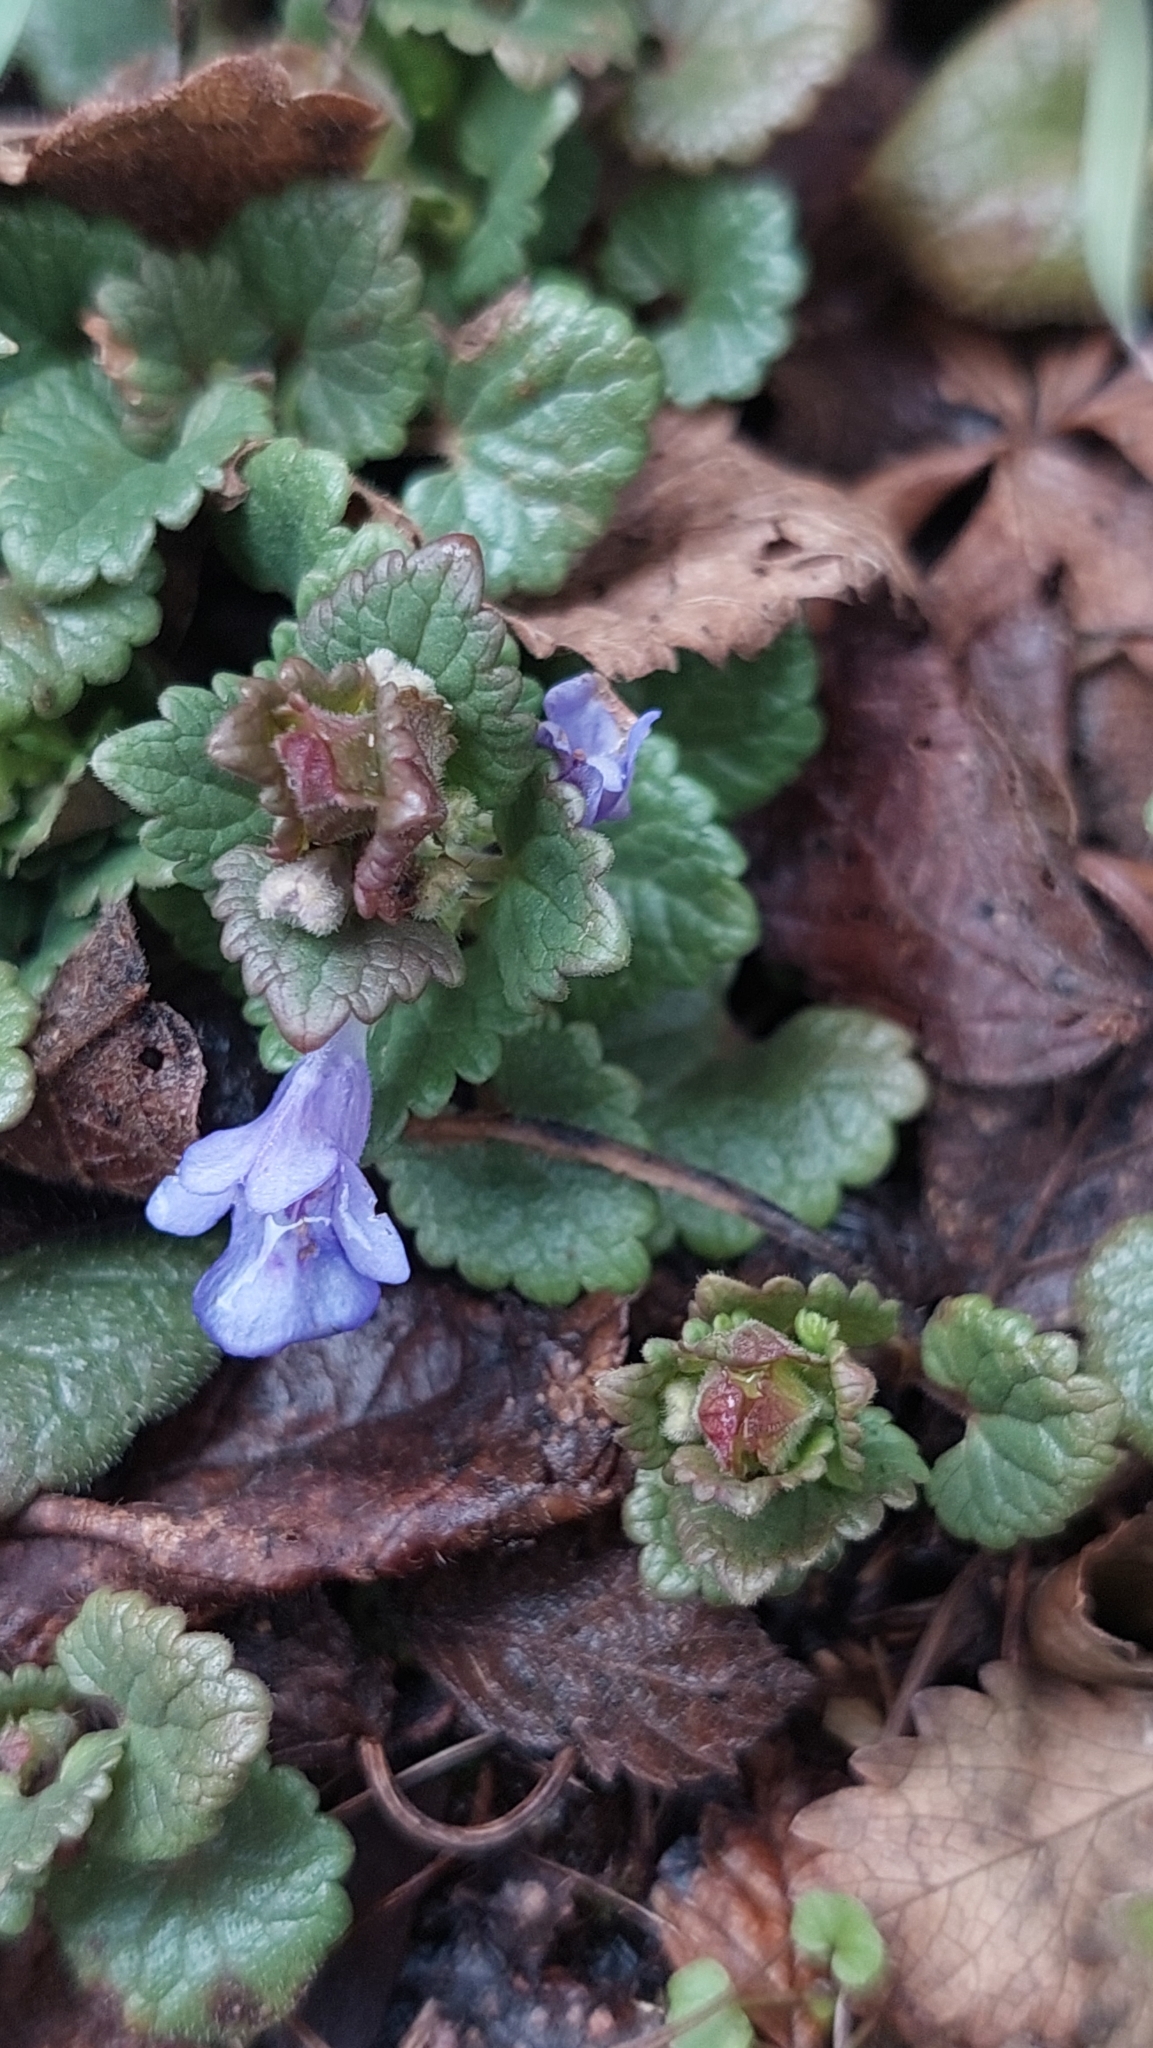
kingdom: Plantae
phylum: Tracheophyta
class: Magnoliopsida
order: Lamiales
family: Lamiaceae
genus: Glechoma
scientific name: Glechoma hederacea
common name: Ground ivy
